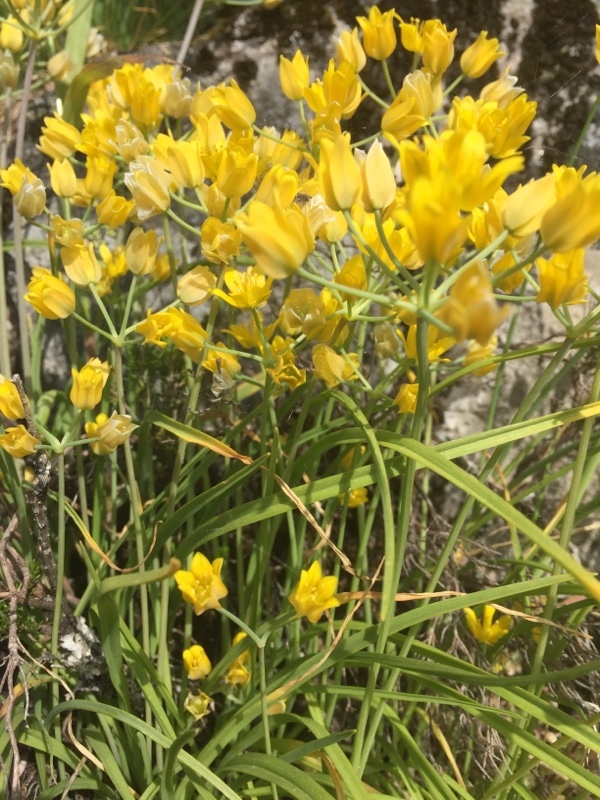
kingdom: Plantae
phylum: Tracheophyta
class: Liliopsida
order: Asparagales
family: Amaryllidaceae
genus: Allium
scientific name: Allium scorzonerifolium
